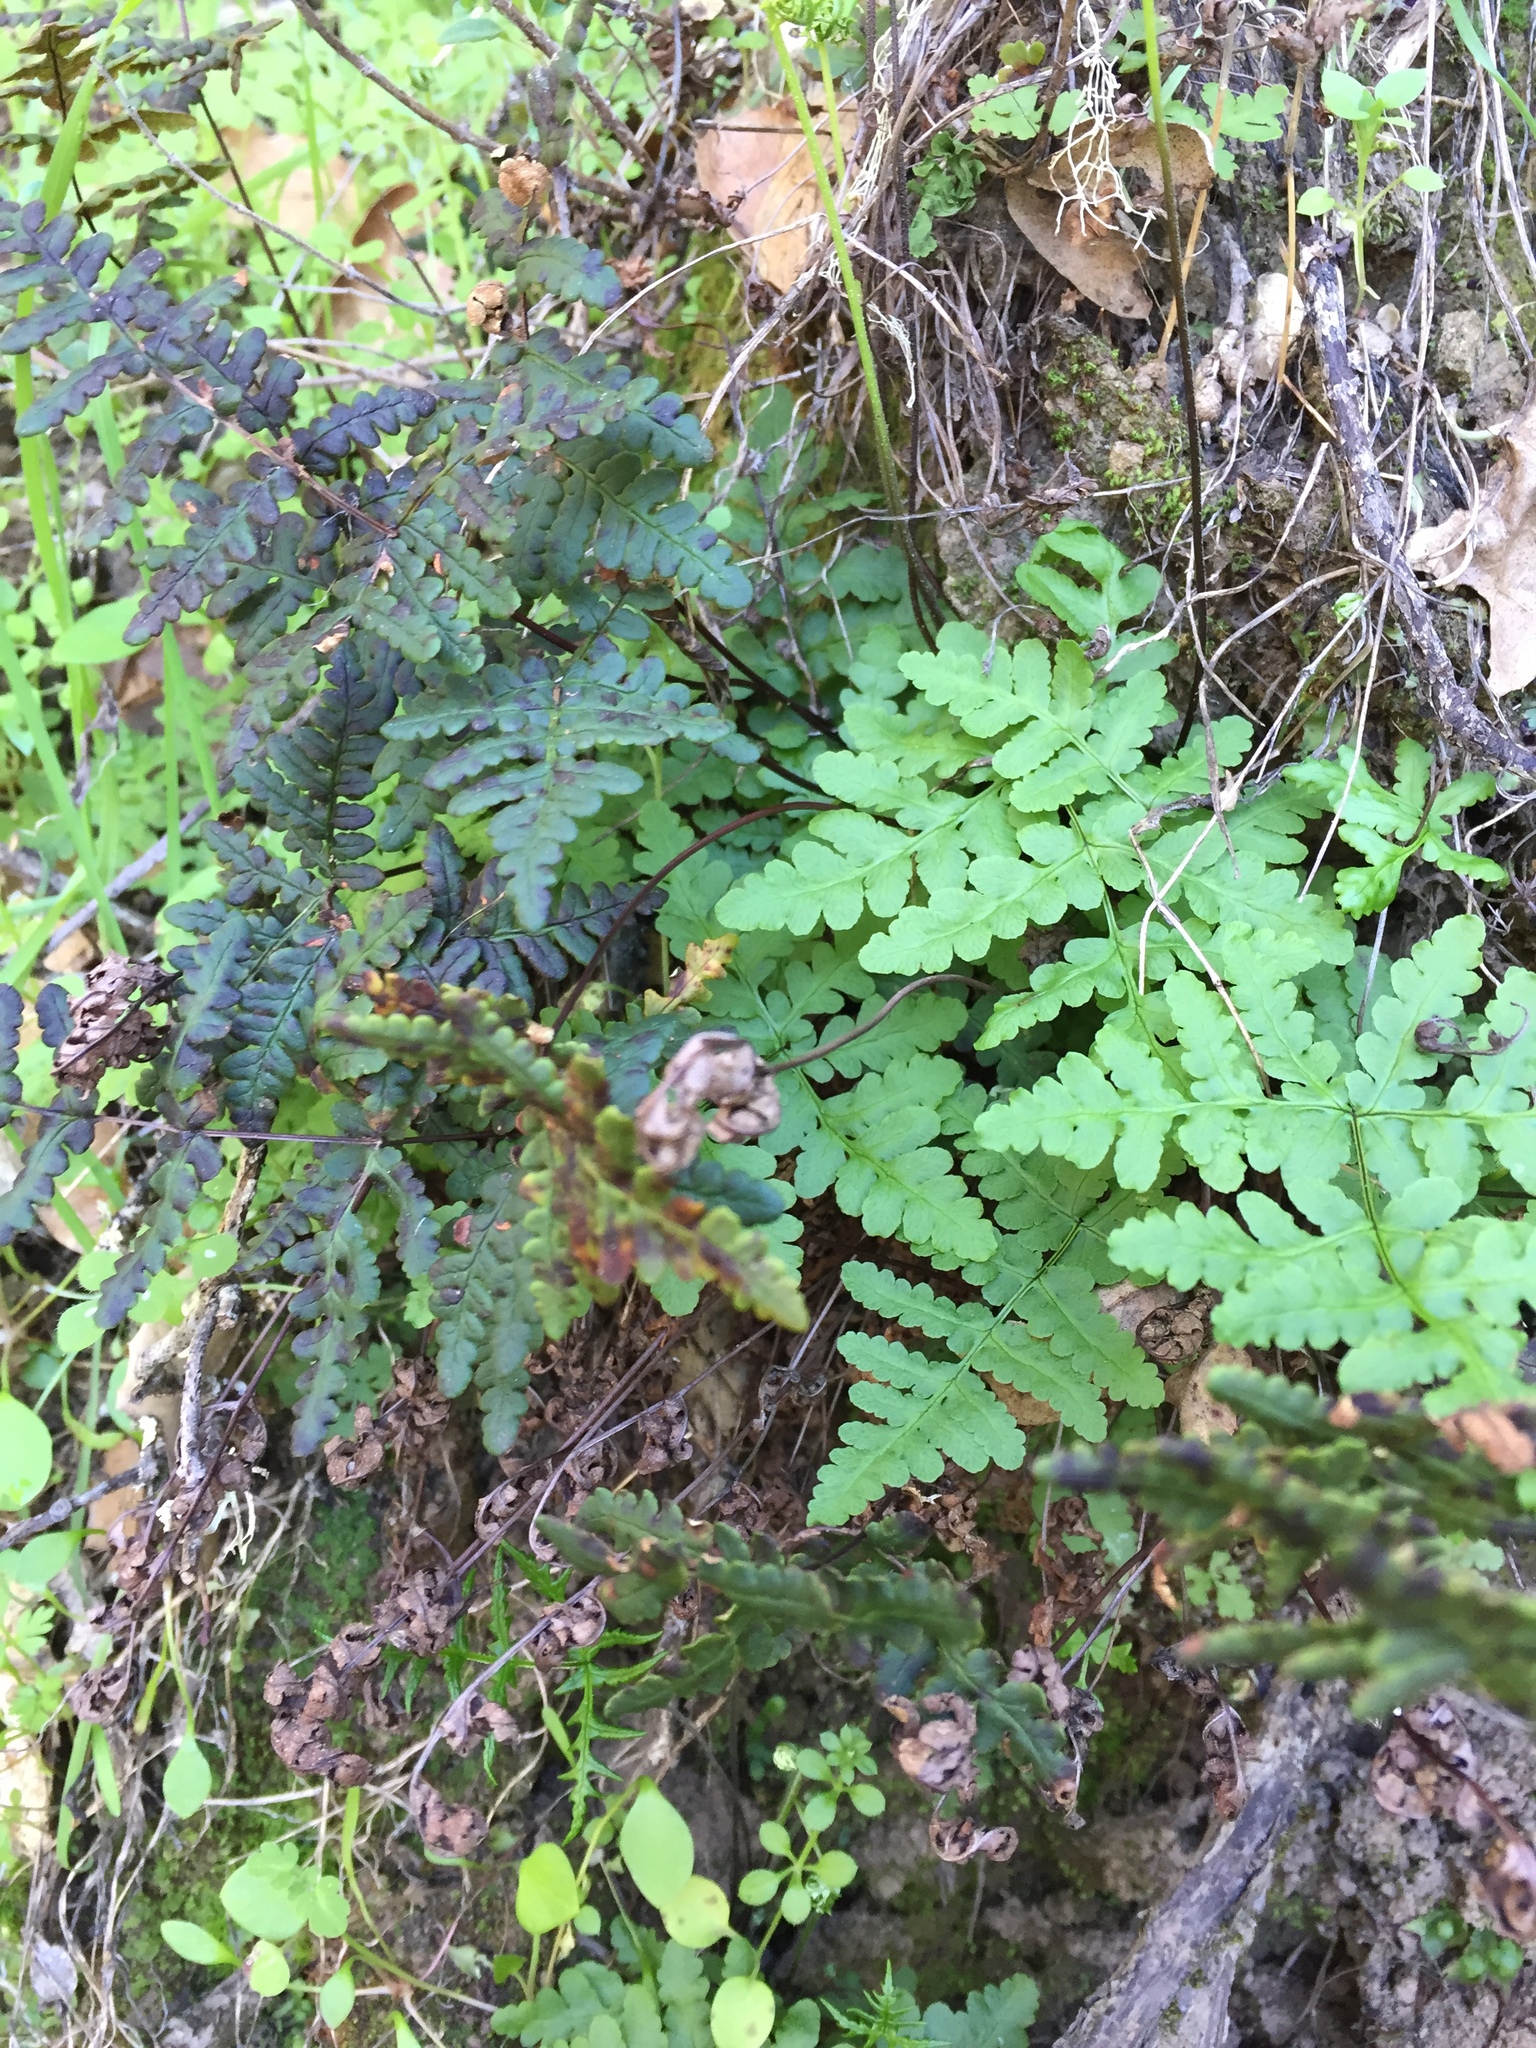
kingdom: Plantae
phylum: Tracheophyta
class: Polypodiopsida
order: Polypodiales
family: Pteridaceae
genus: Pentagramma
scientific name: Pentagramma triangularis
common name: Gold fern
